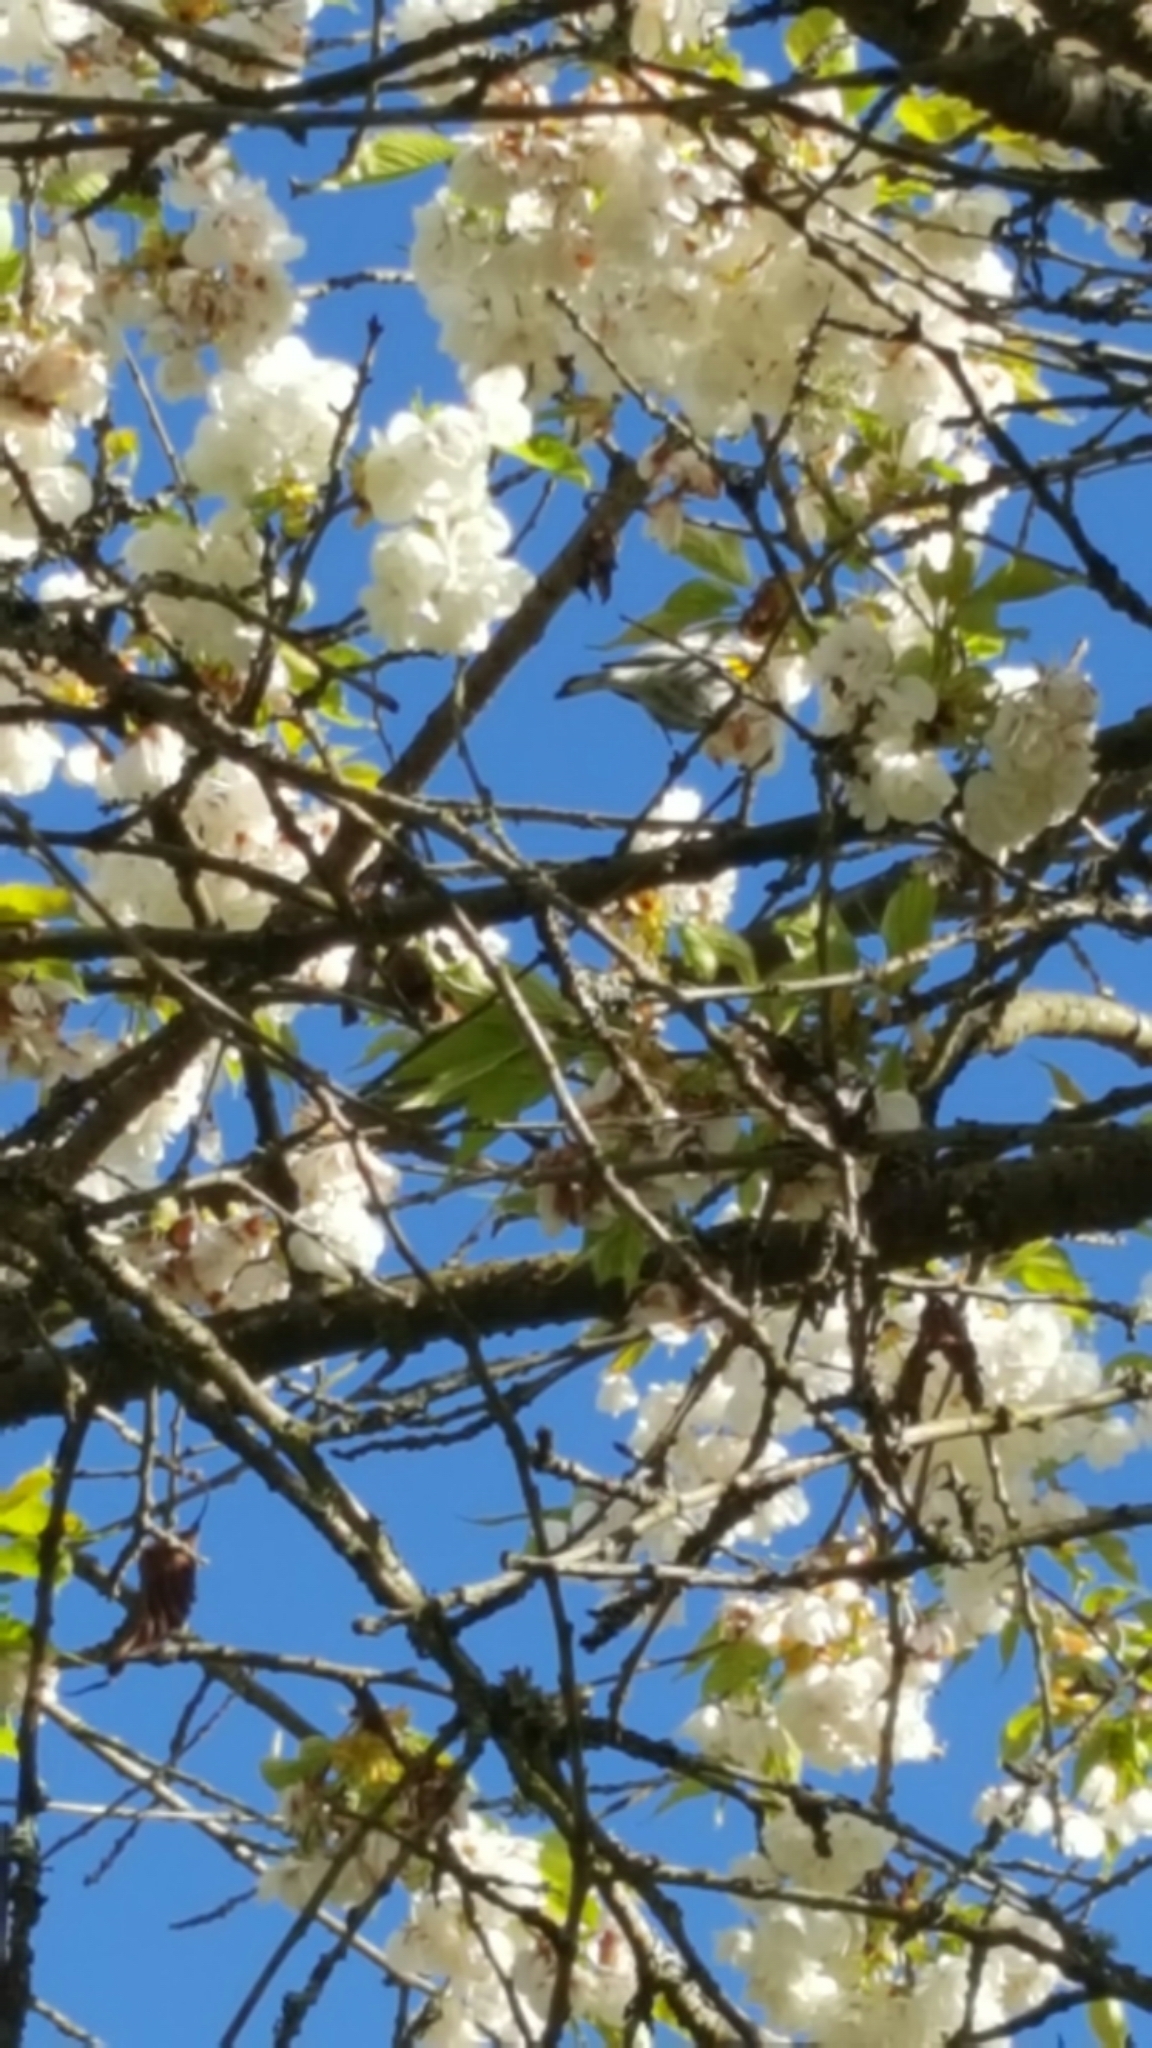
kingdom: Animalia
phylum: Chordata
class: Aves
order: Passeriformes
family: Parulidae
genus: Setophaga
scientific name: Setophaga coronata
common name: Myrtle warbler
